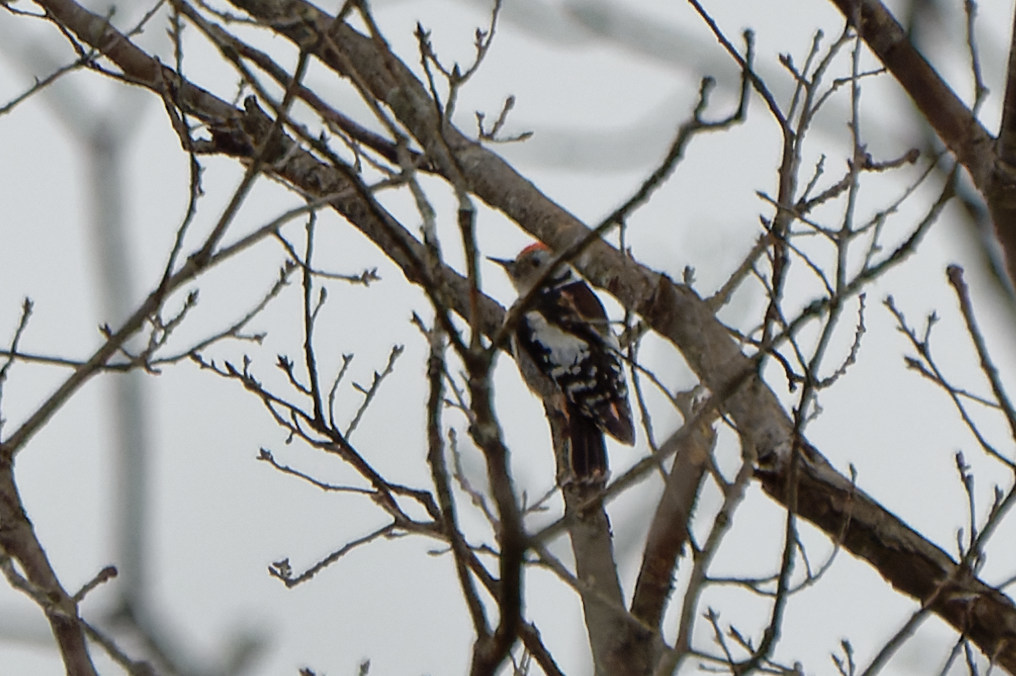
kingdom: Animalia
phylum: Chordata
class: Aves
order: Piciformes
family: Picidae
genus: Dendrocoptes
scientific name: Dendrocoptes medius
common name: Middle spotted woodpecker
